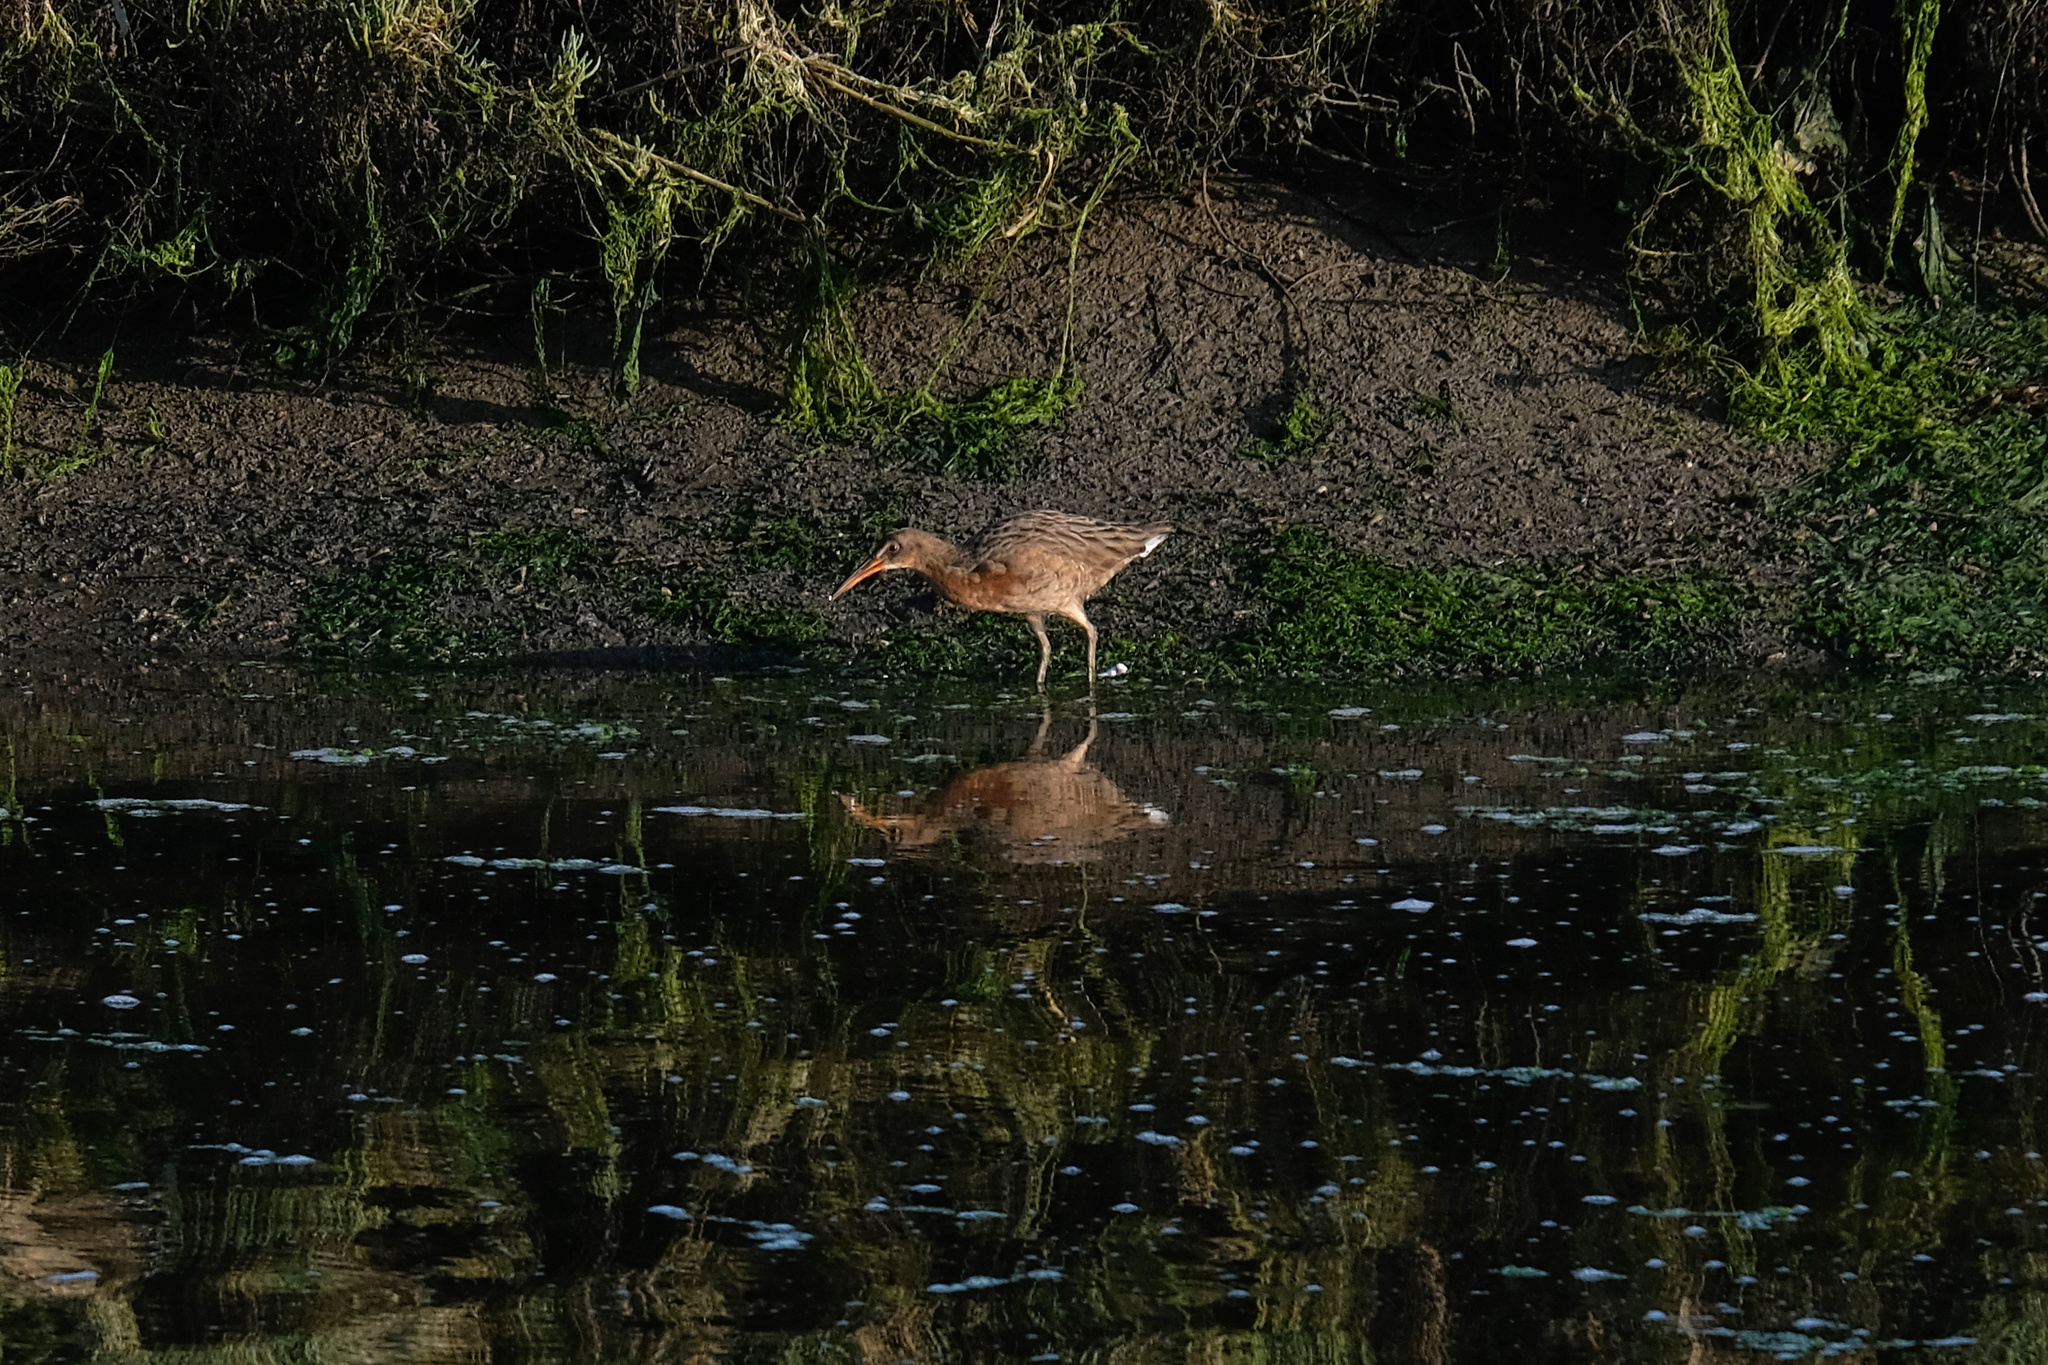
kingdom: Animalia
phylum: Chordata
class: Aves
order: Gruiformes
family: Rallidae
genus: Rallus
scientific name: Rallus obsoletus
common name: Ridgway's rail
